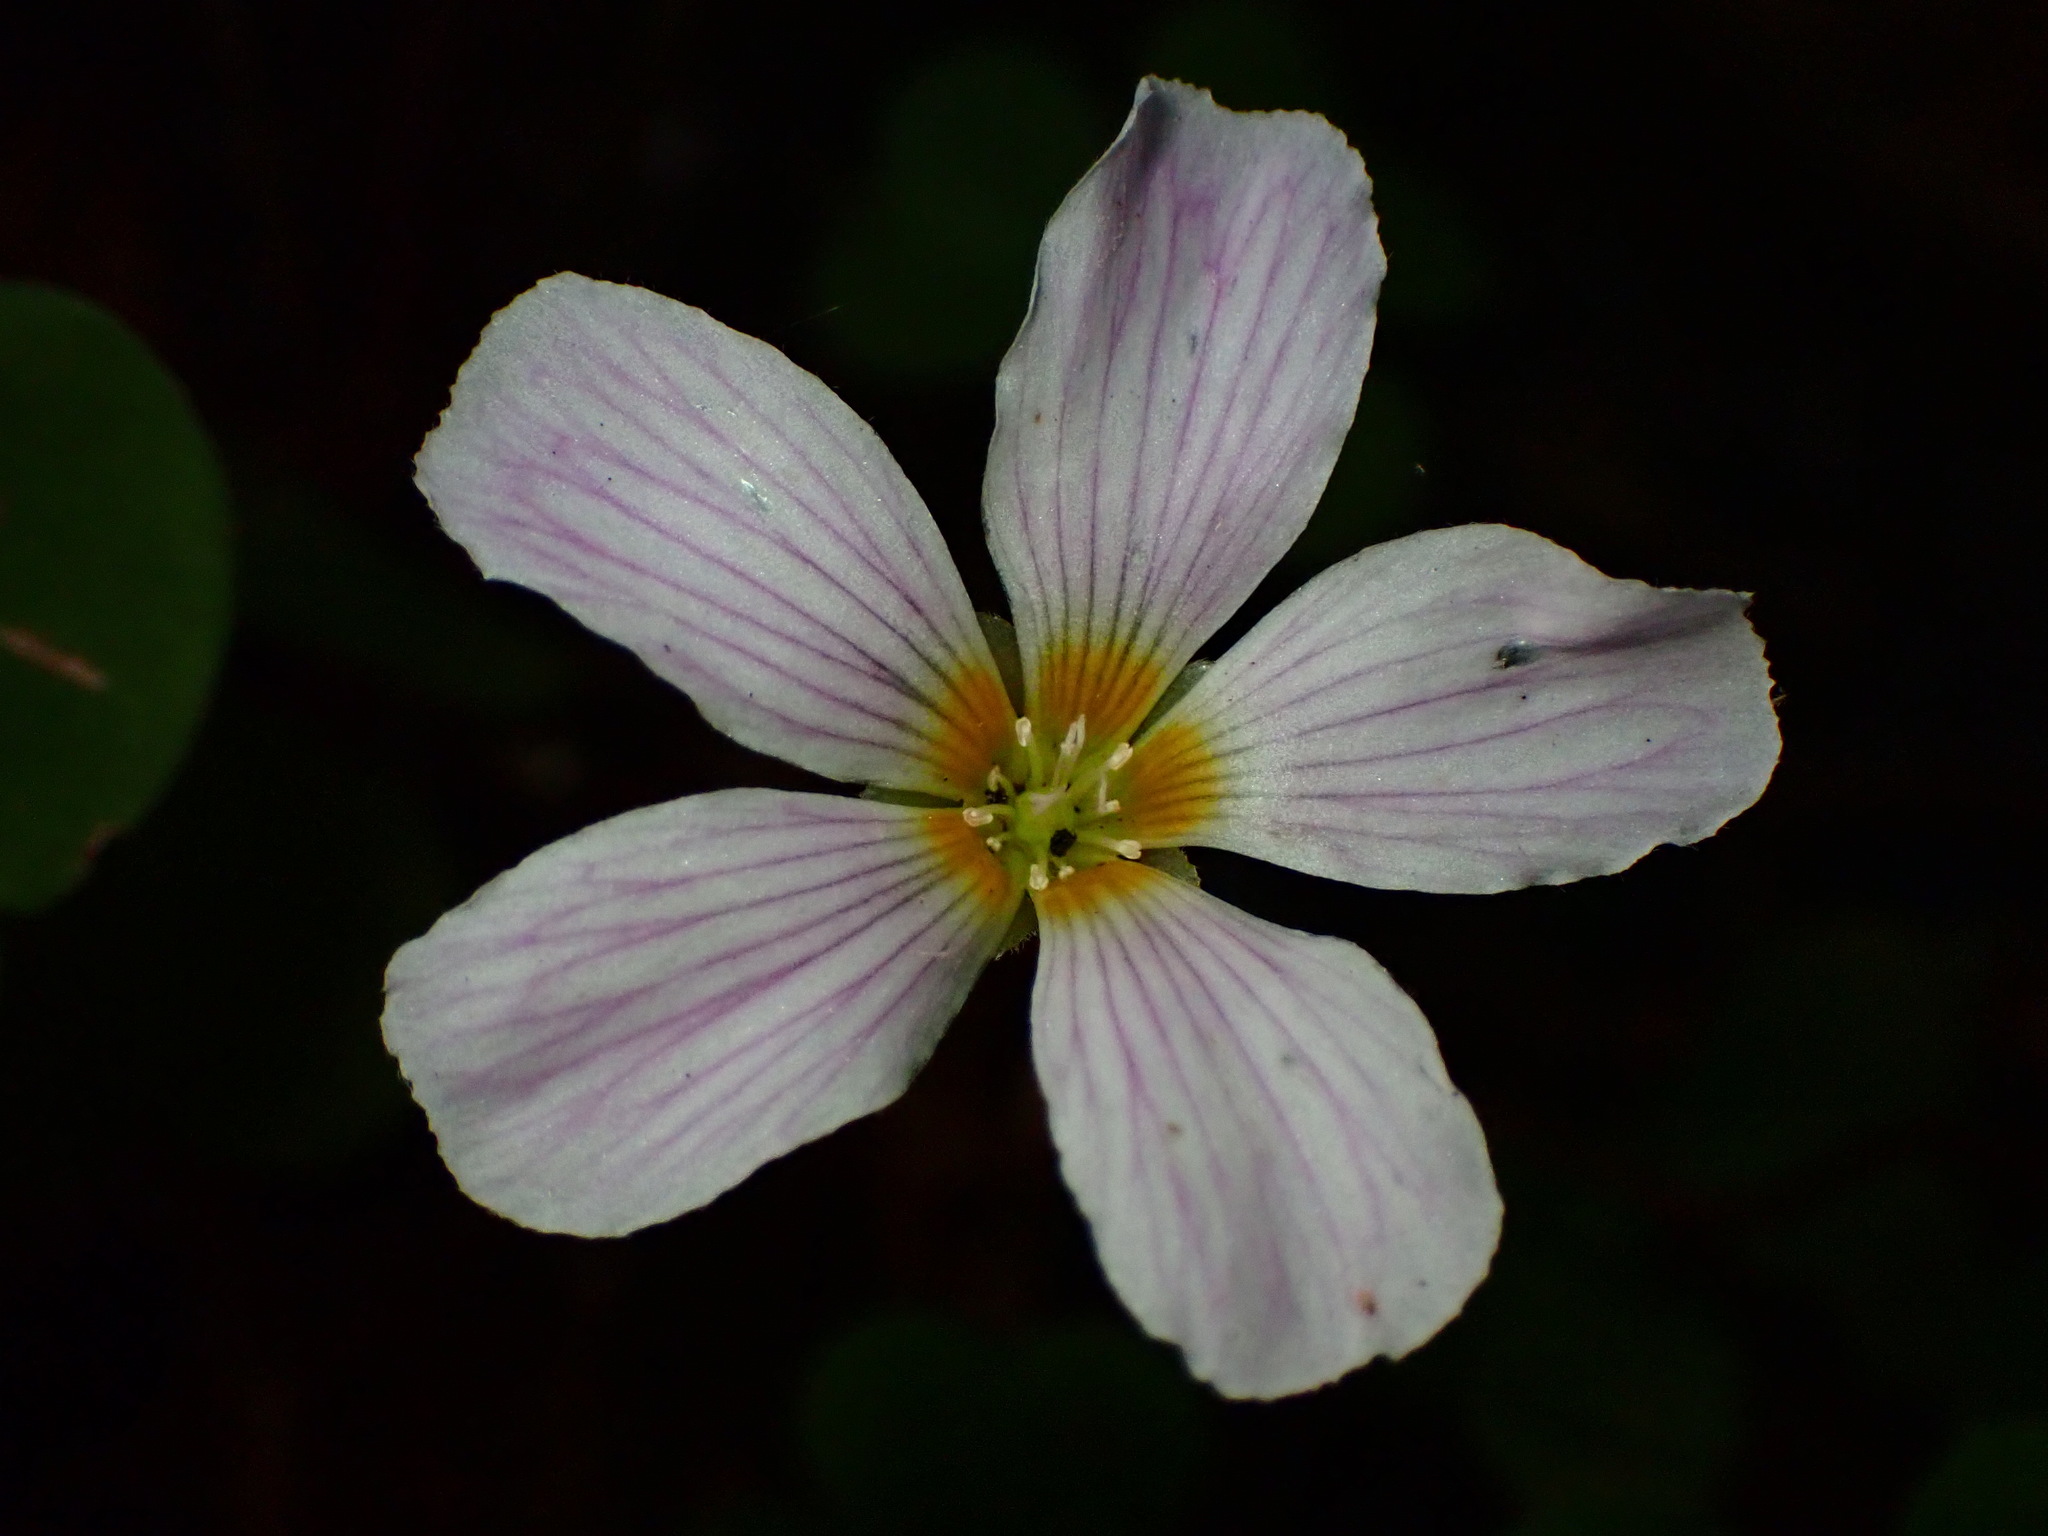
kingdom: Plantae
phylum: Tracheophyta
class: Magnoliopsida
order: Oxalidales
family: Oxalidaceae
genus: Oxalis
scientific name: Oxalis oregana
